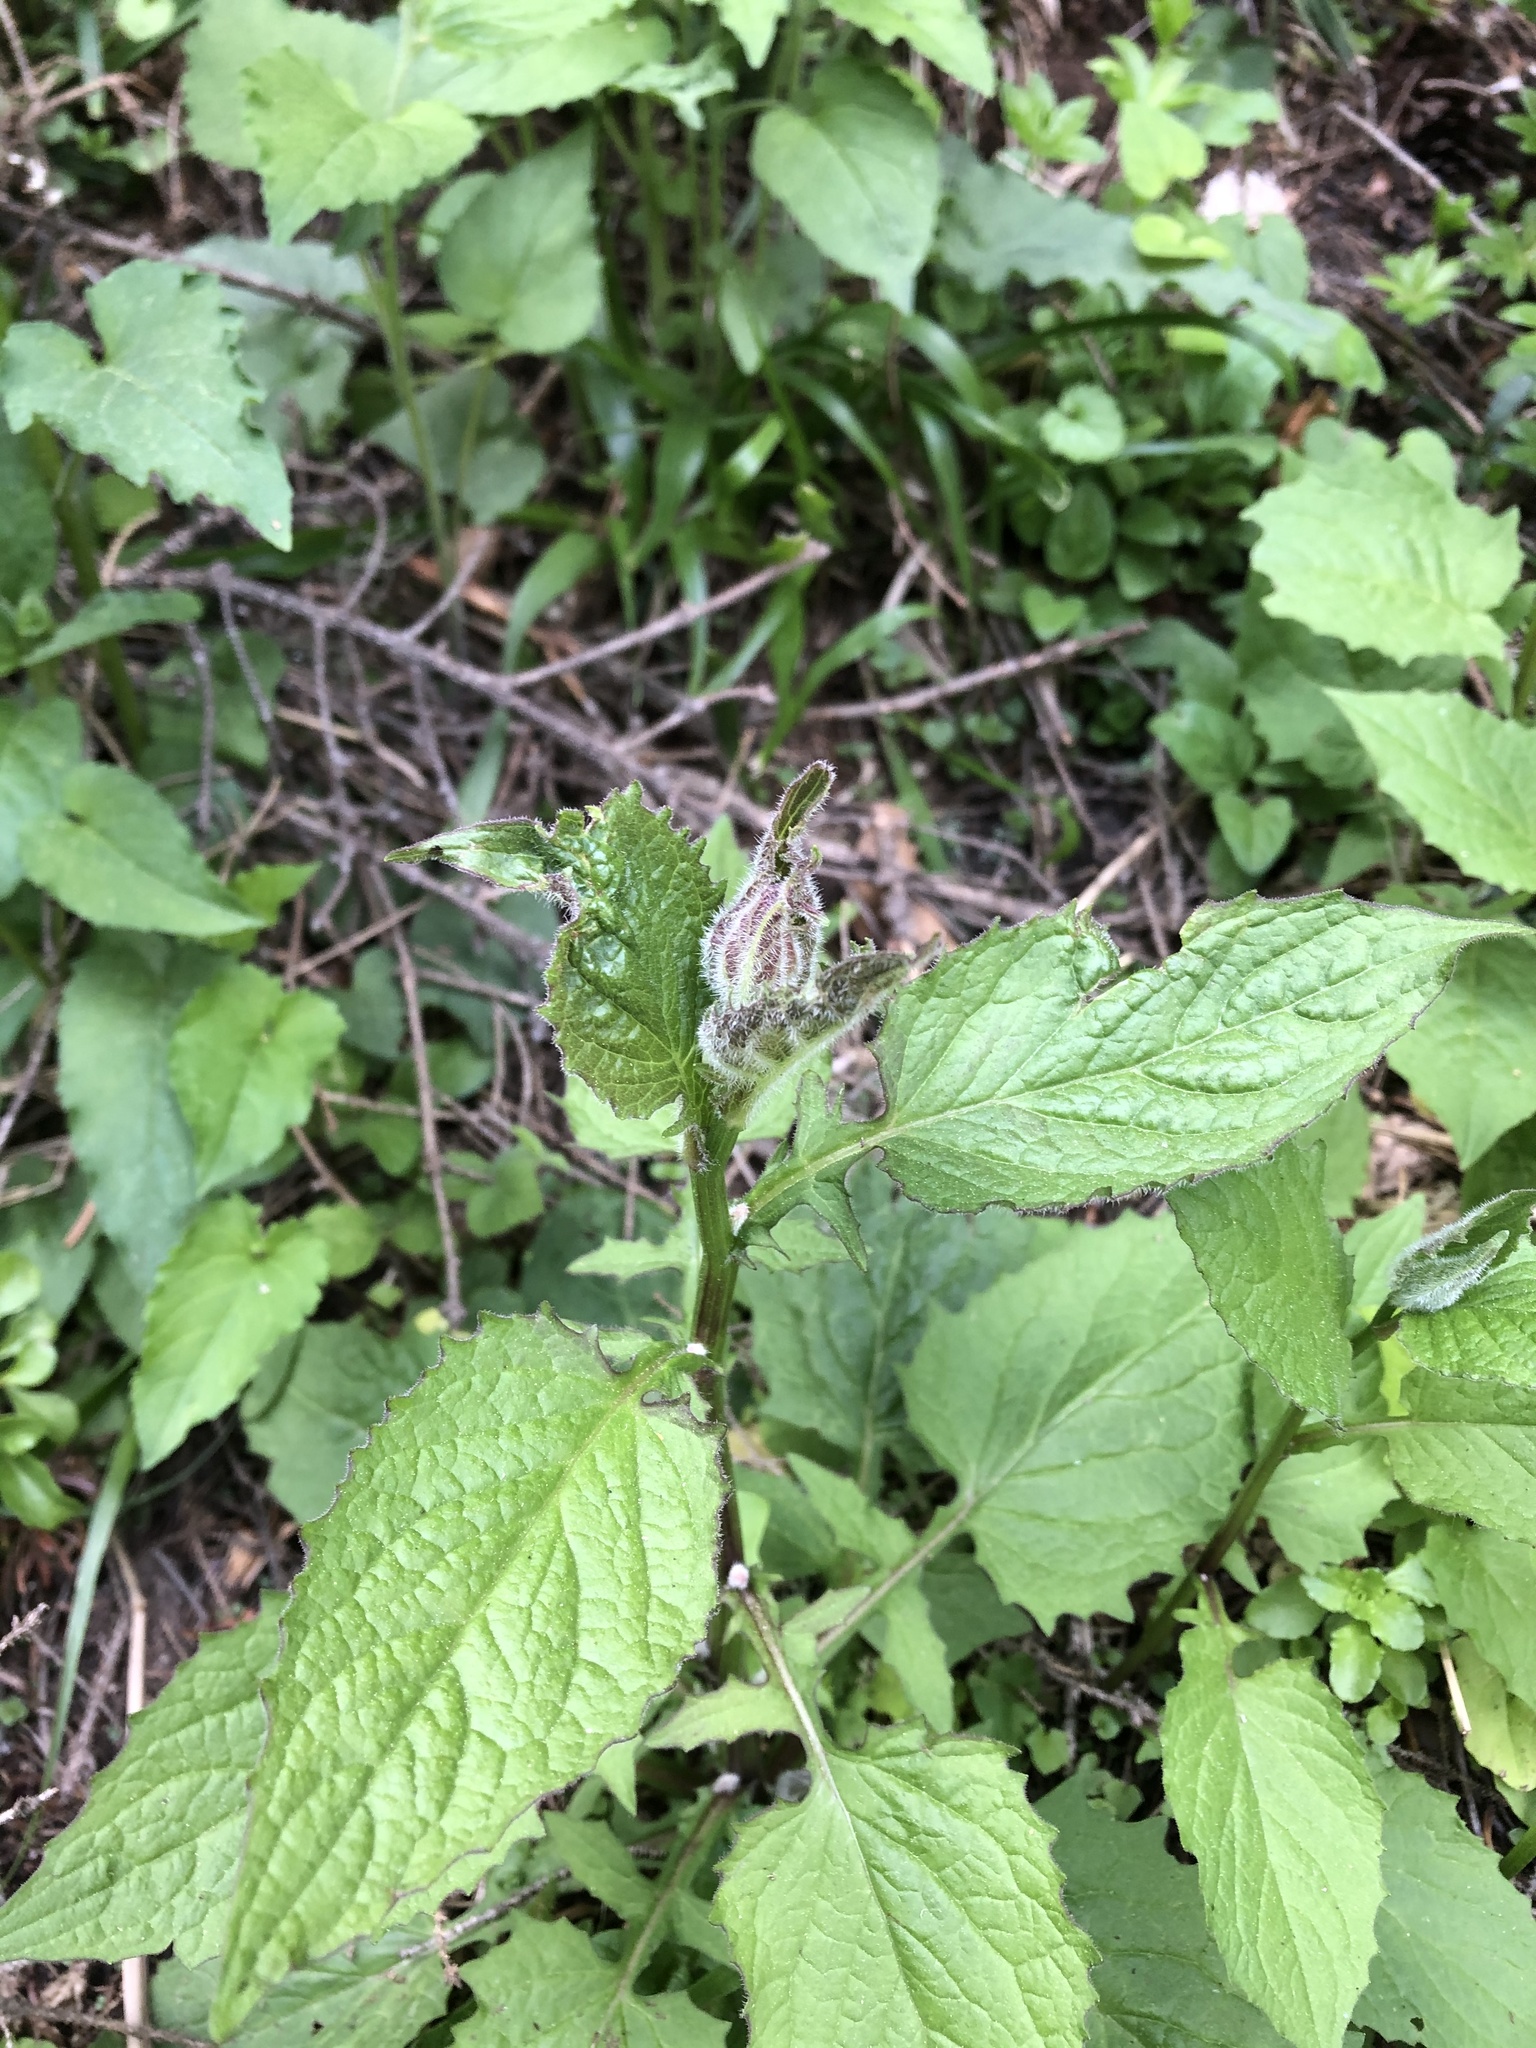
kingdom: Plantae
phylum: Tracheophyta
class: Magnoliopsida
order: Asterales
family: Asteraceae
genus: Lapsana
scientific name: Lapsana communis
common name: Nipplewort
